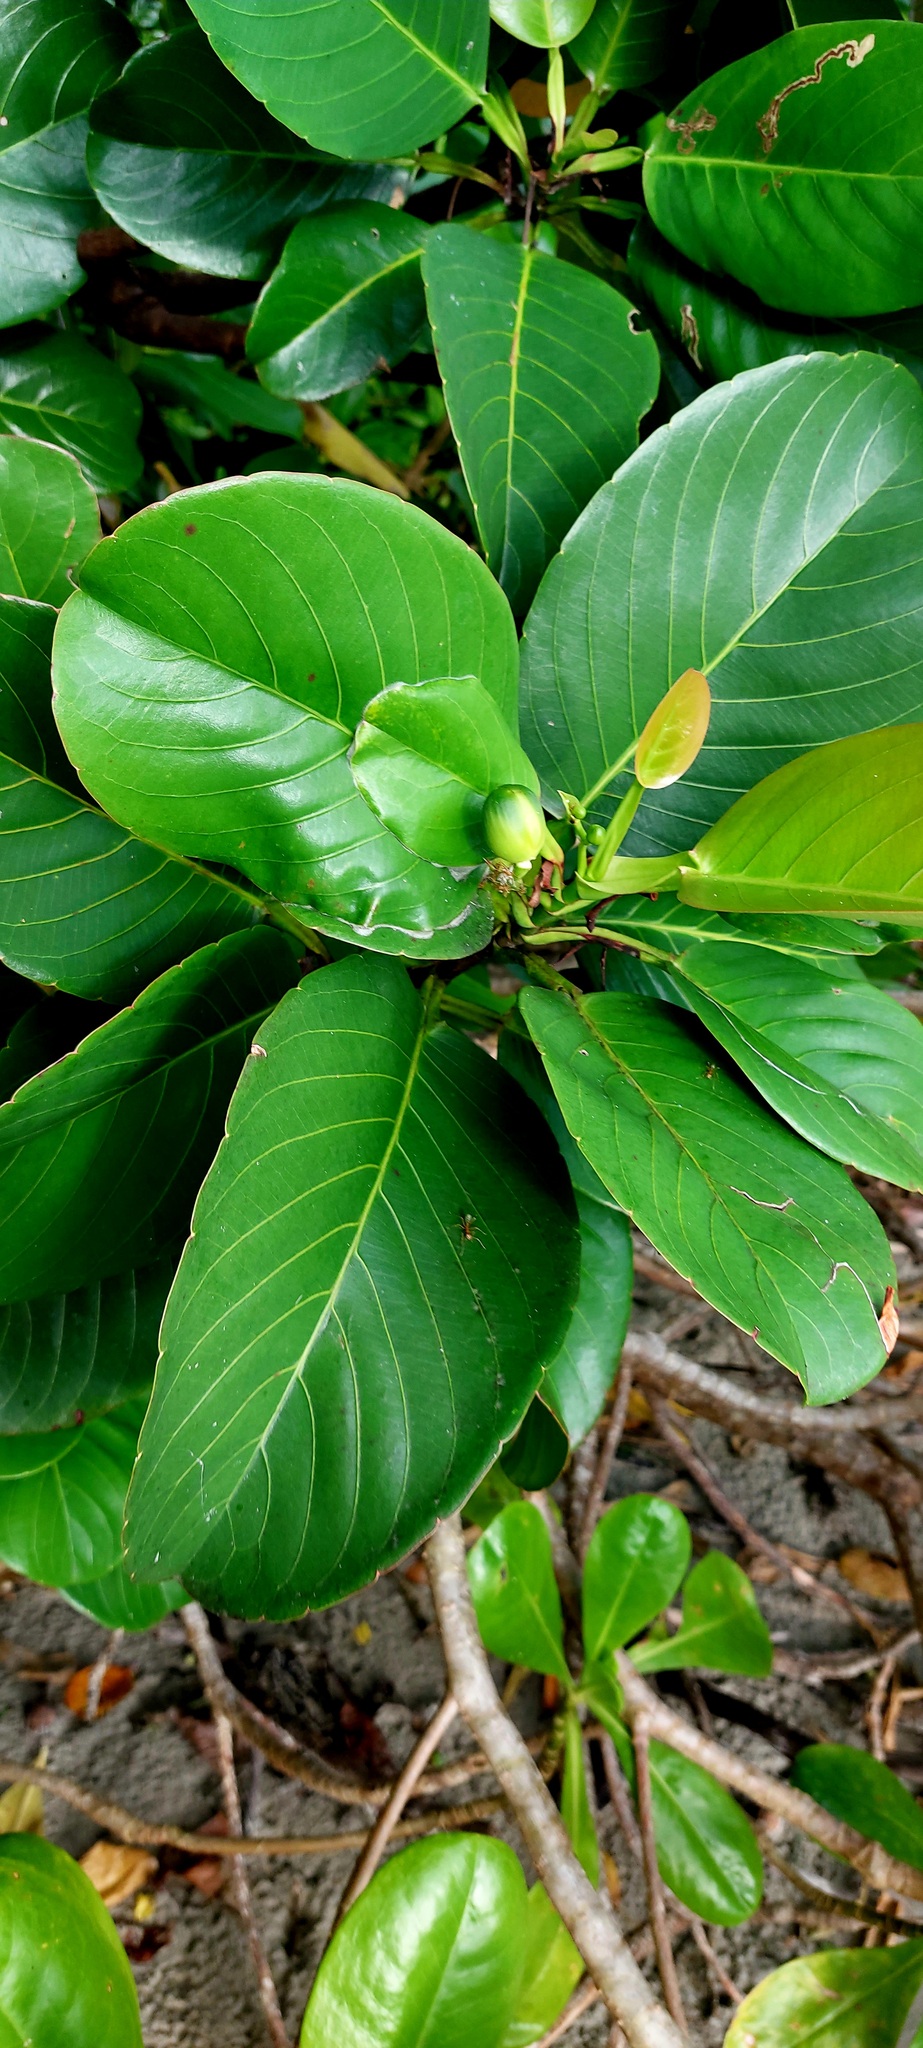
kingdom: Plantae
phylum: Tracheophyta
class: Magnoliopsida
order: Dilleniales
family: Dilleniaceae
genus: Dillenia
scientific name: Dillenia alata
